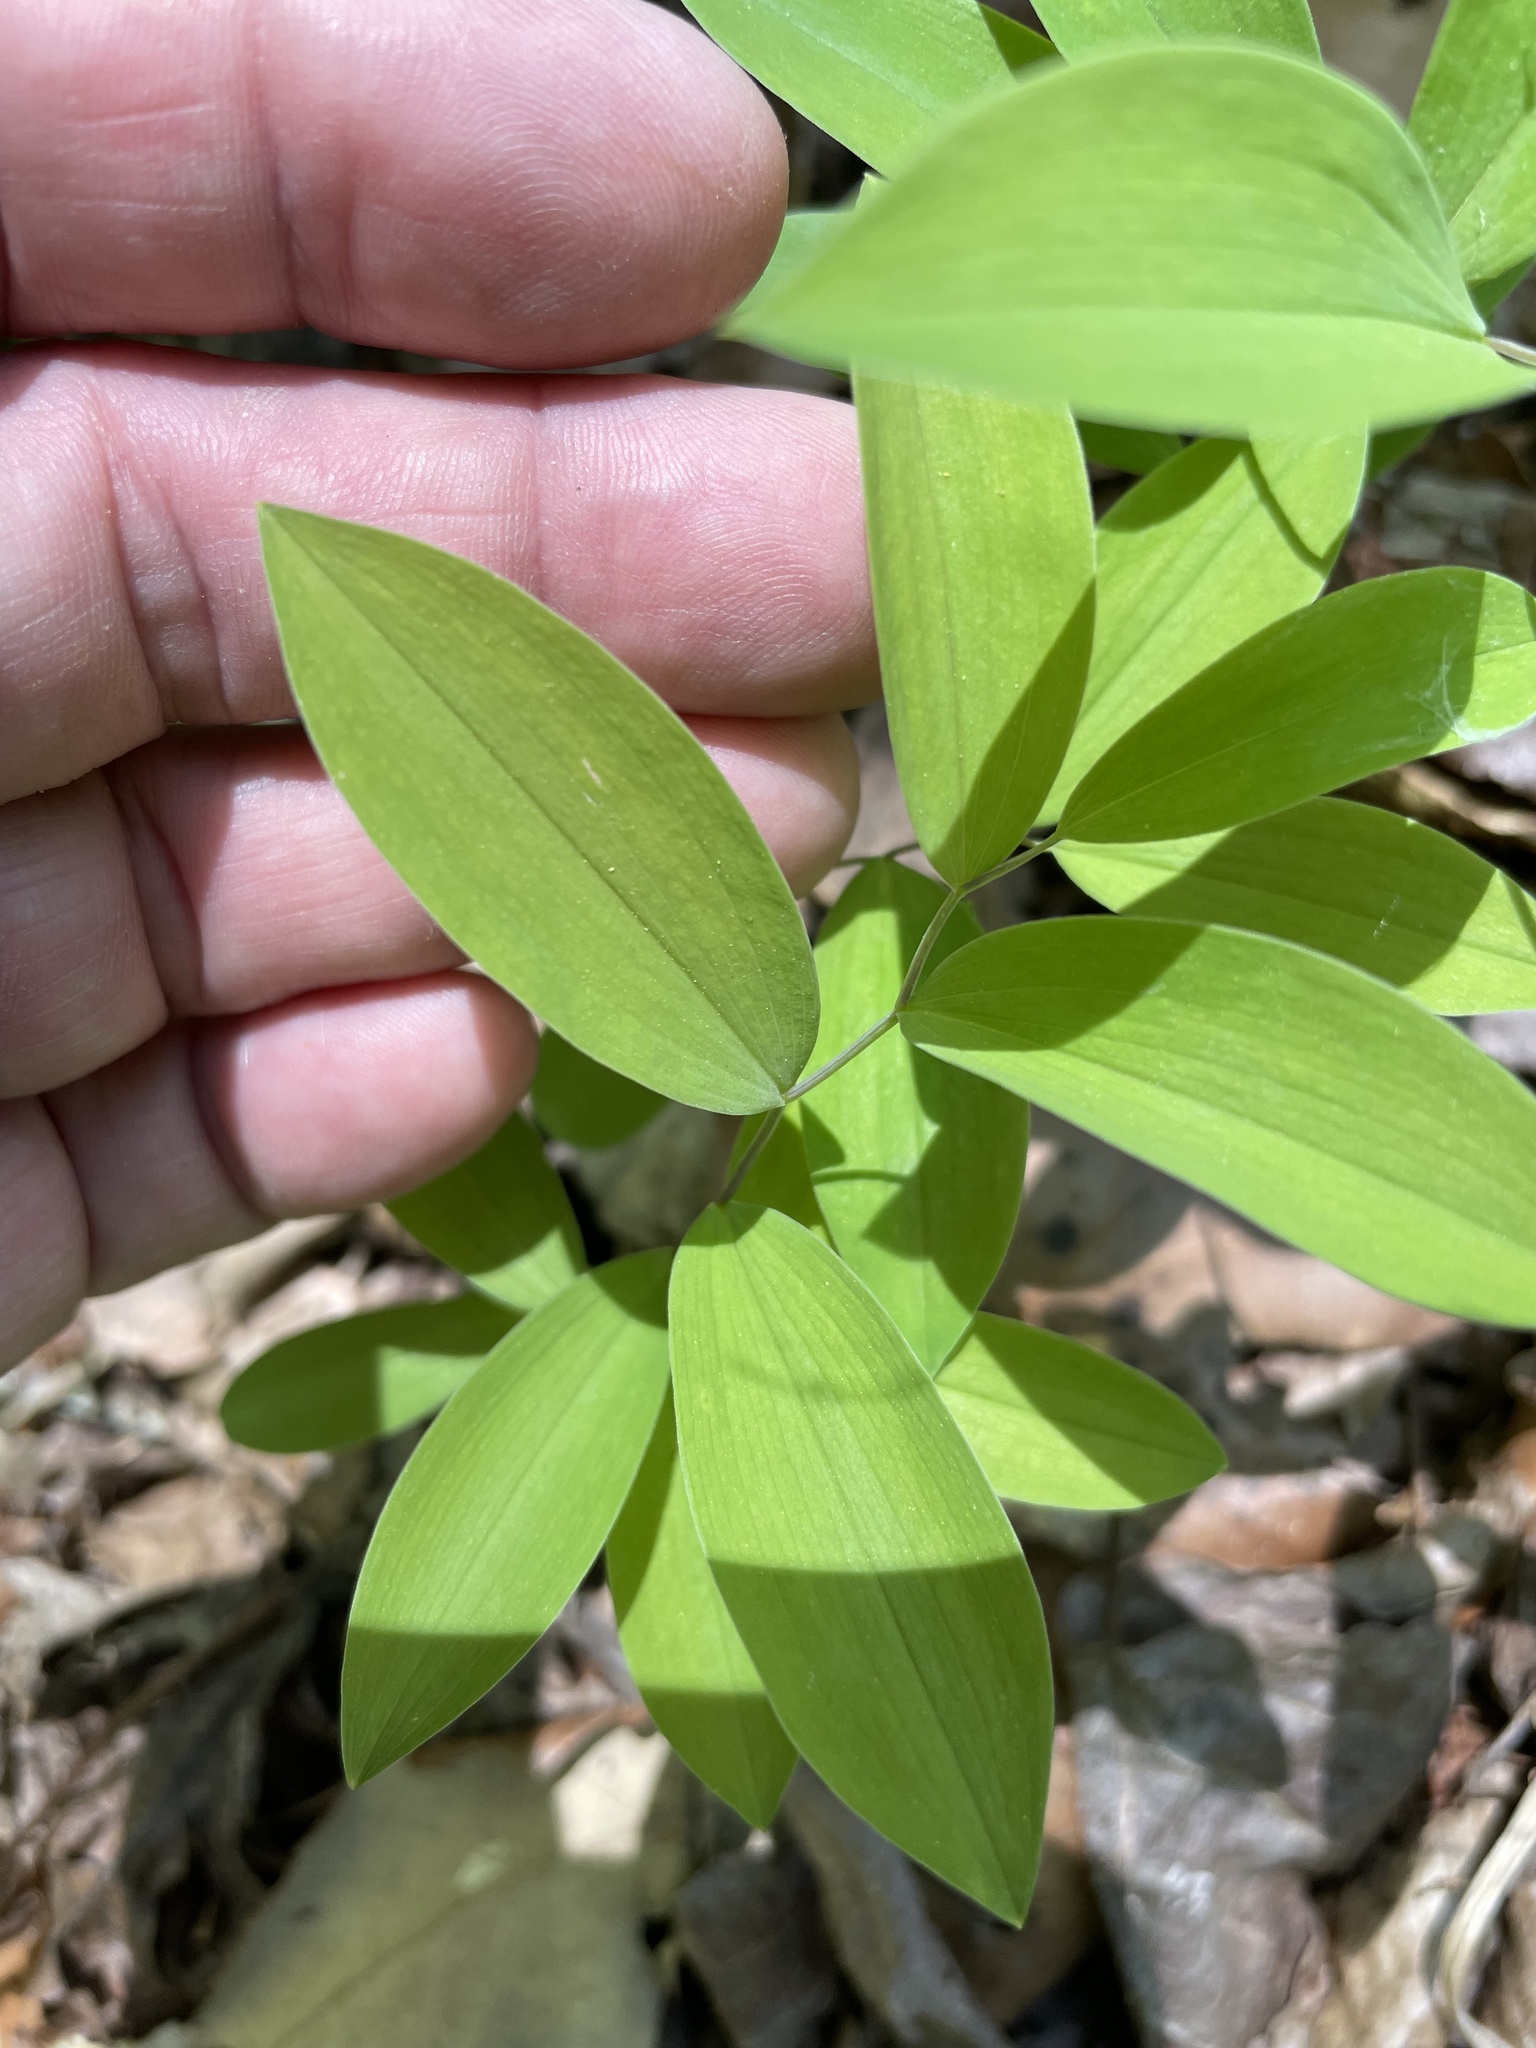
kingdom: Plantae
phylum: Tracheophyta
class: Liliopsida
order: Liliales
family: Colchicaceae
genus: Uvularia
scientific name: Uvularia sessilifolia
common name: Straw-lily
